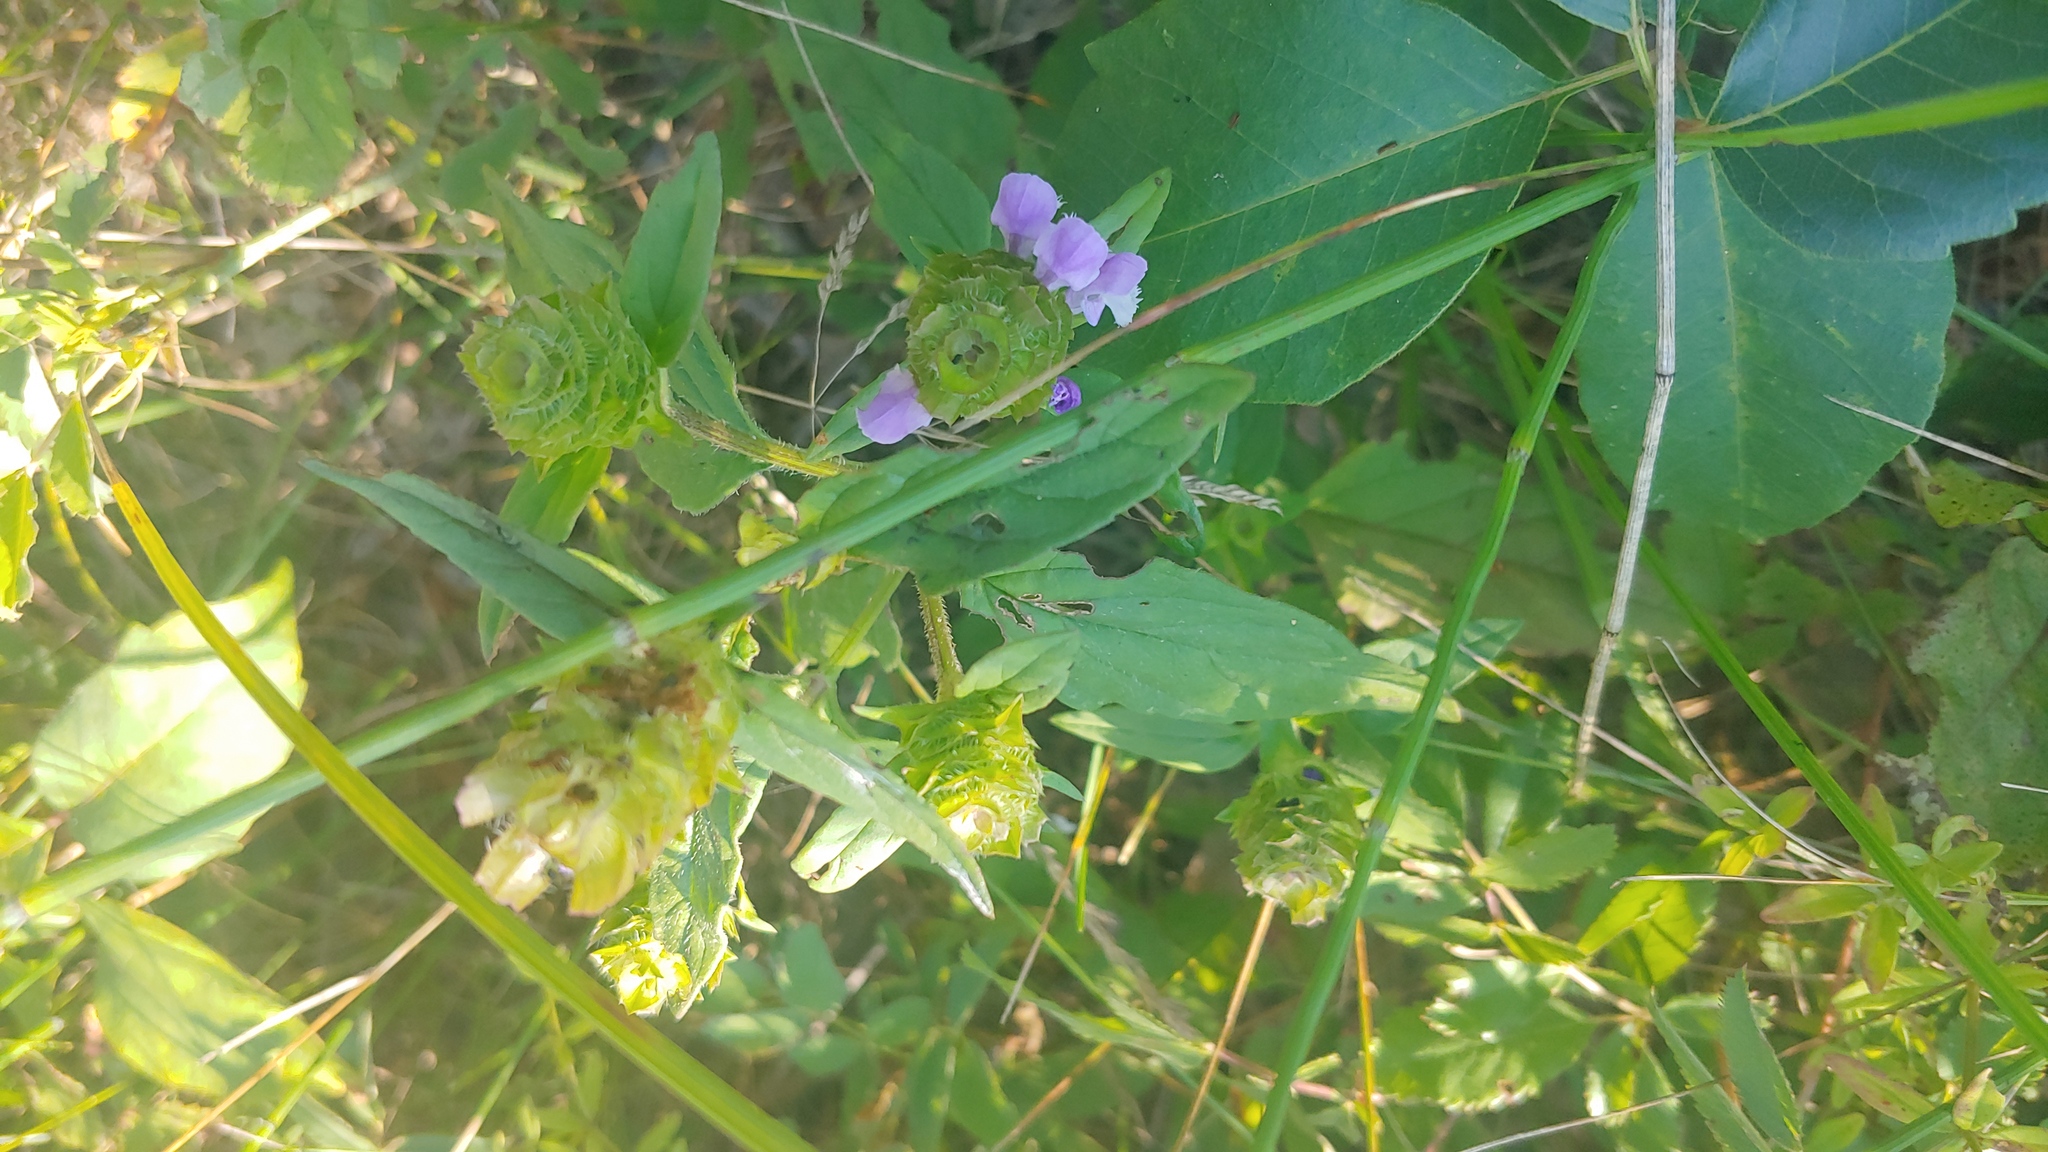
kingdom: Plantae
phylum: Tracheophyta
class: Magnoliopsida
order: Lamiales
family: Lamiaceae
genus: Prunella
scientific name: Prunella vulgaris
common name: Heal-all
